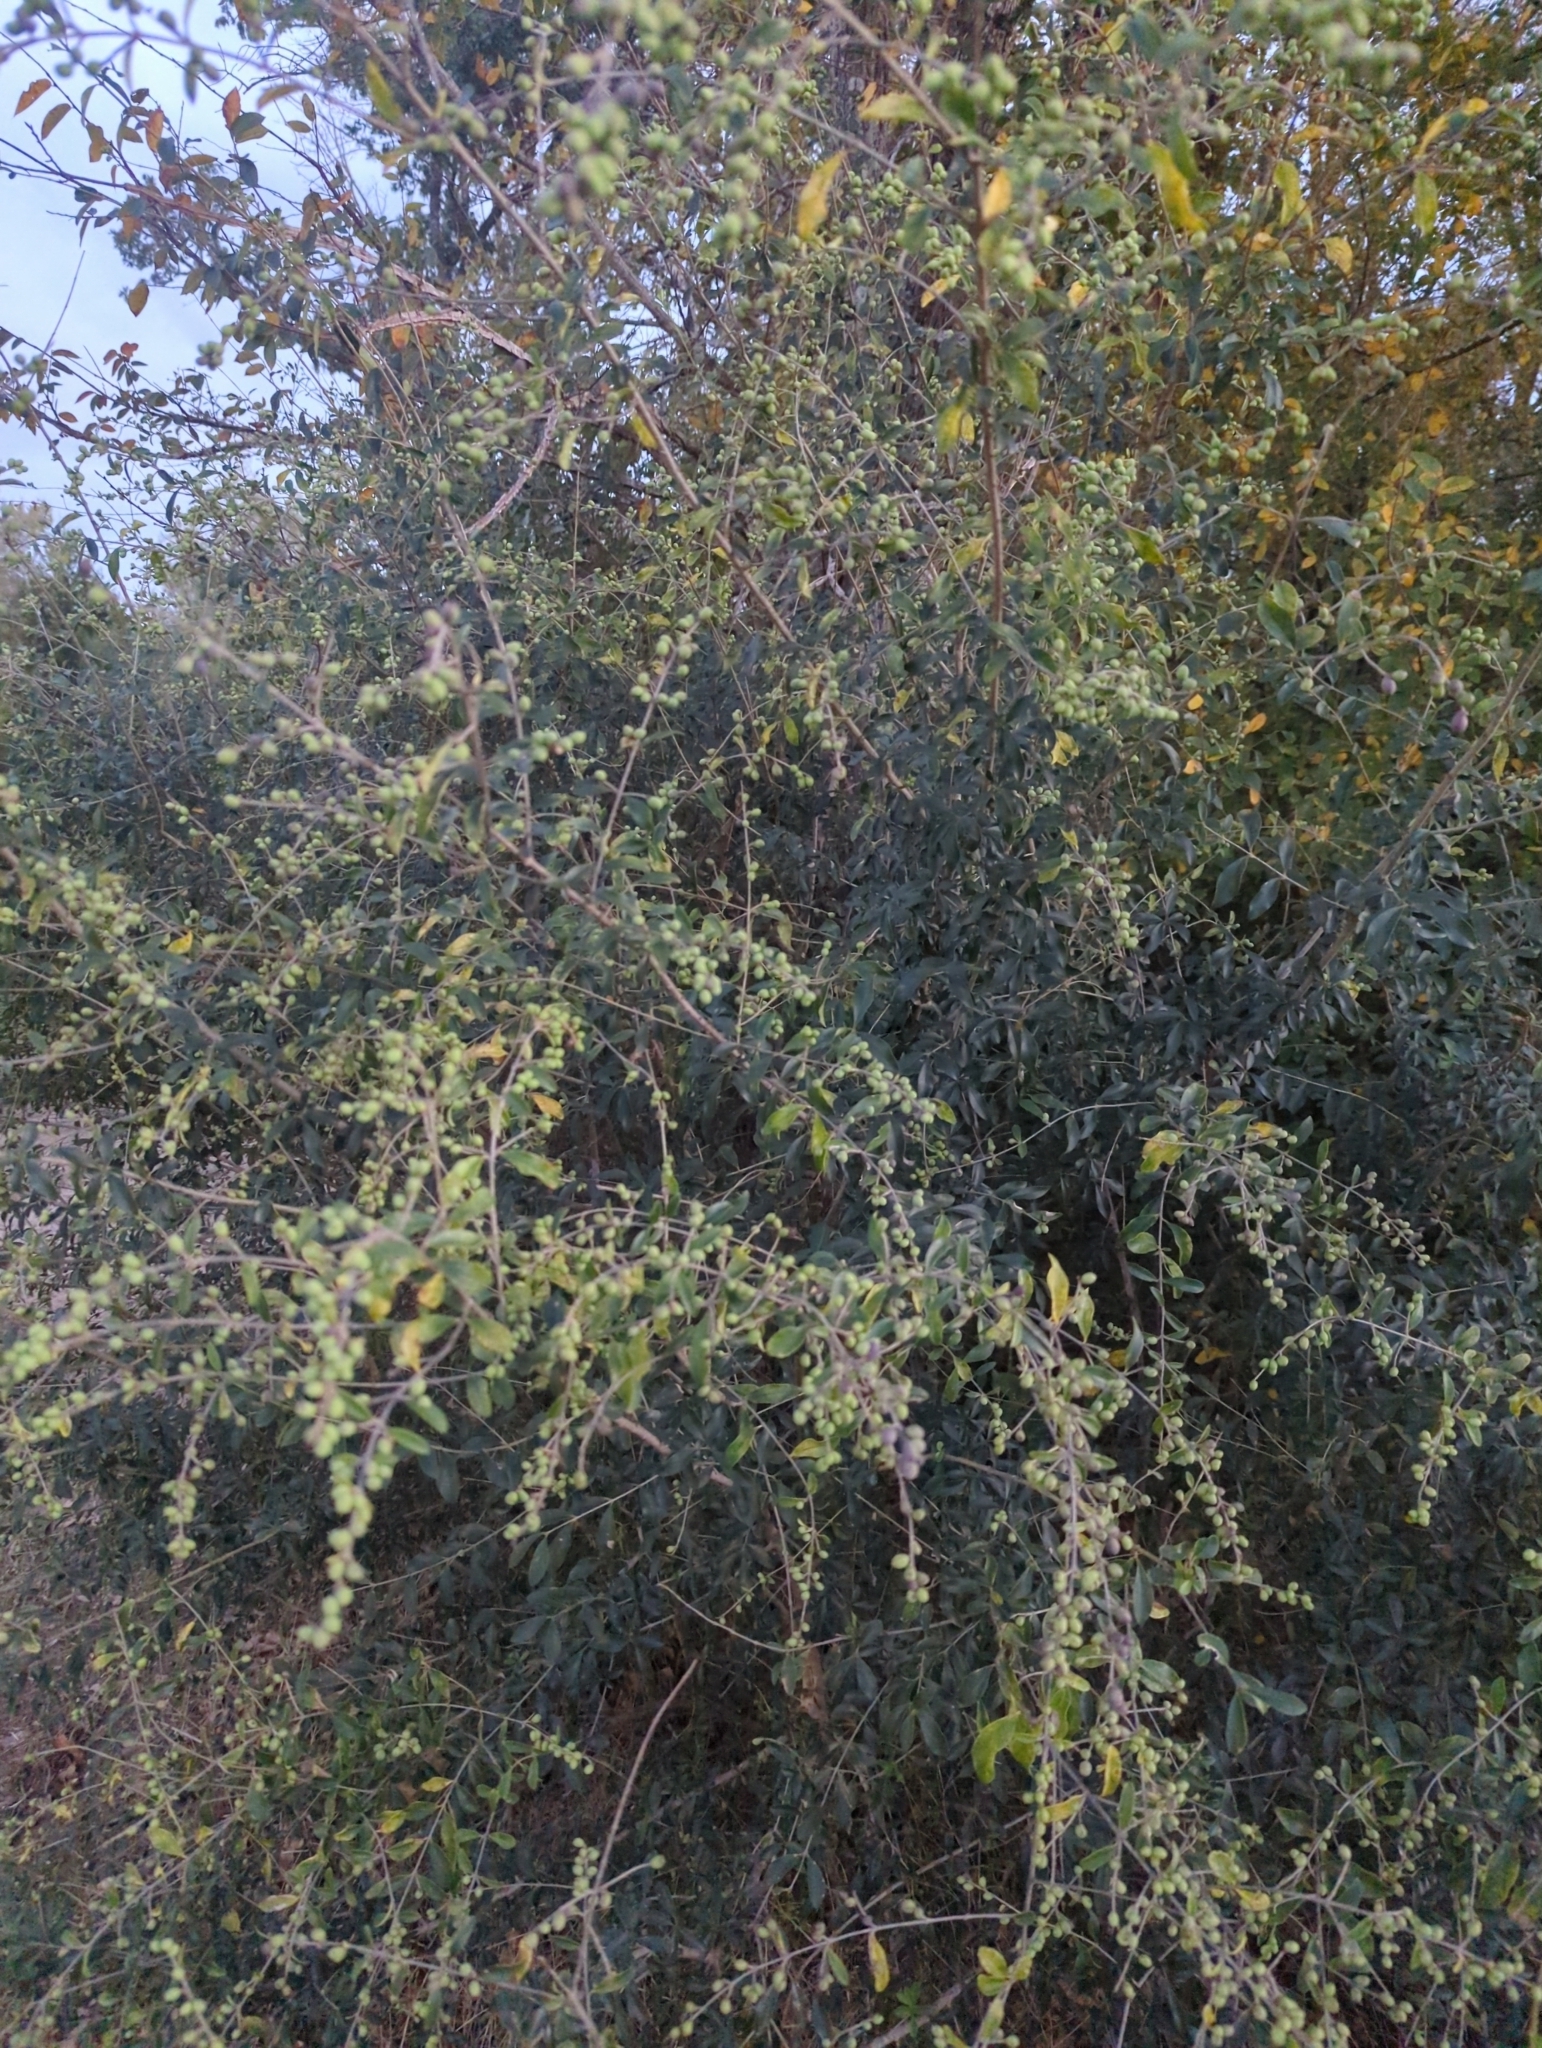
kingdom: Plantae
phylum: Tracheophyta
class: Magnoliopsida
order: Lamiales
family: Oleaceae
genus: Ligustrum
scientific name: Ligustrum sinense
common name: Chinese privet
